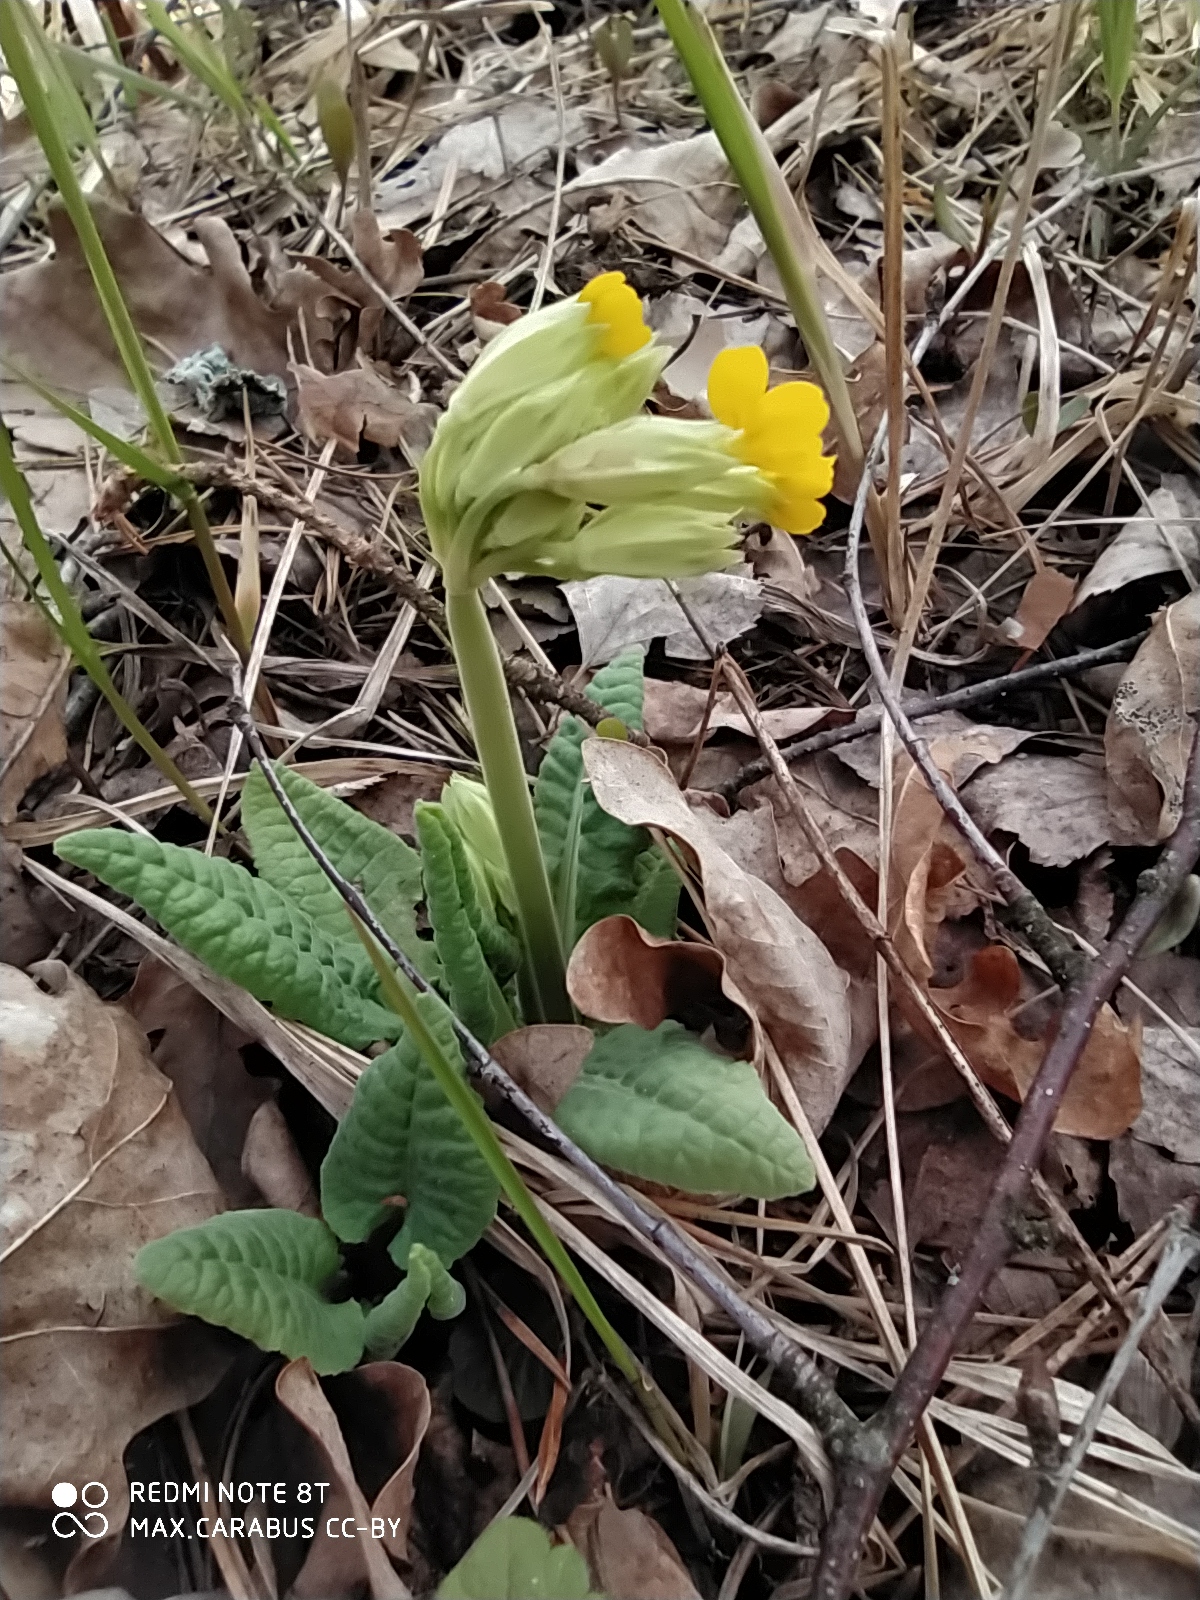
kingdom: Plantae
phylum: Tracheophyta
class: Magnoliopsida
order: Ericales
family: Primulaceae
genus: Primula
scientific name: Primula veris
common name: Cowslip
